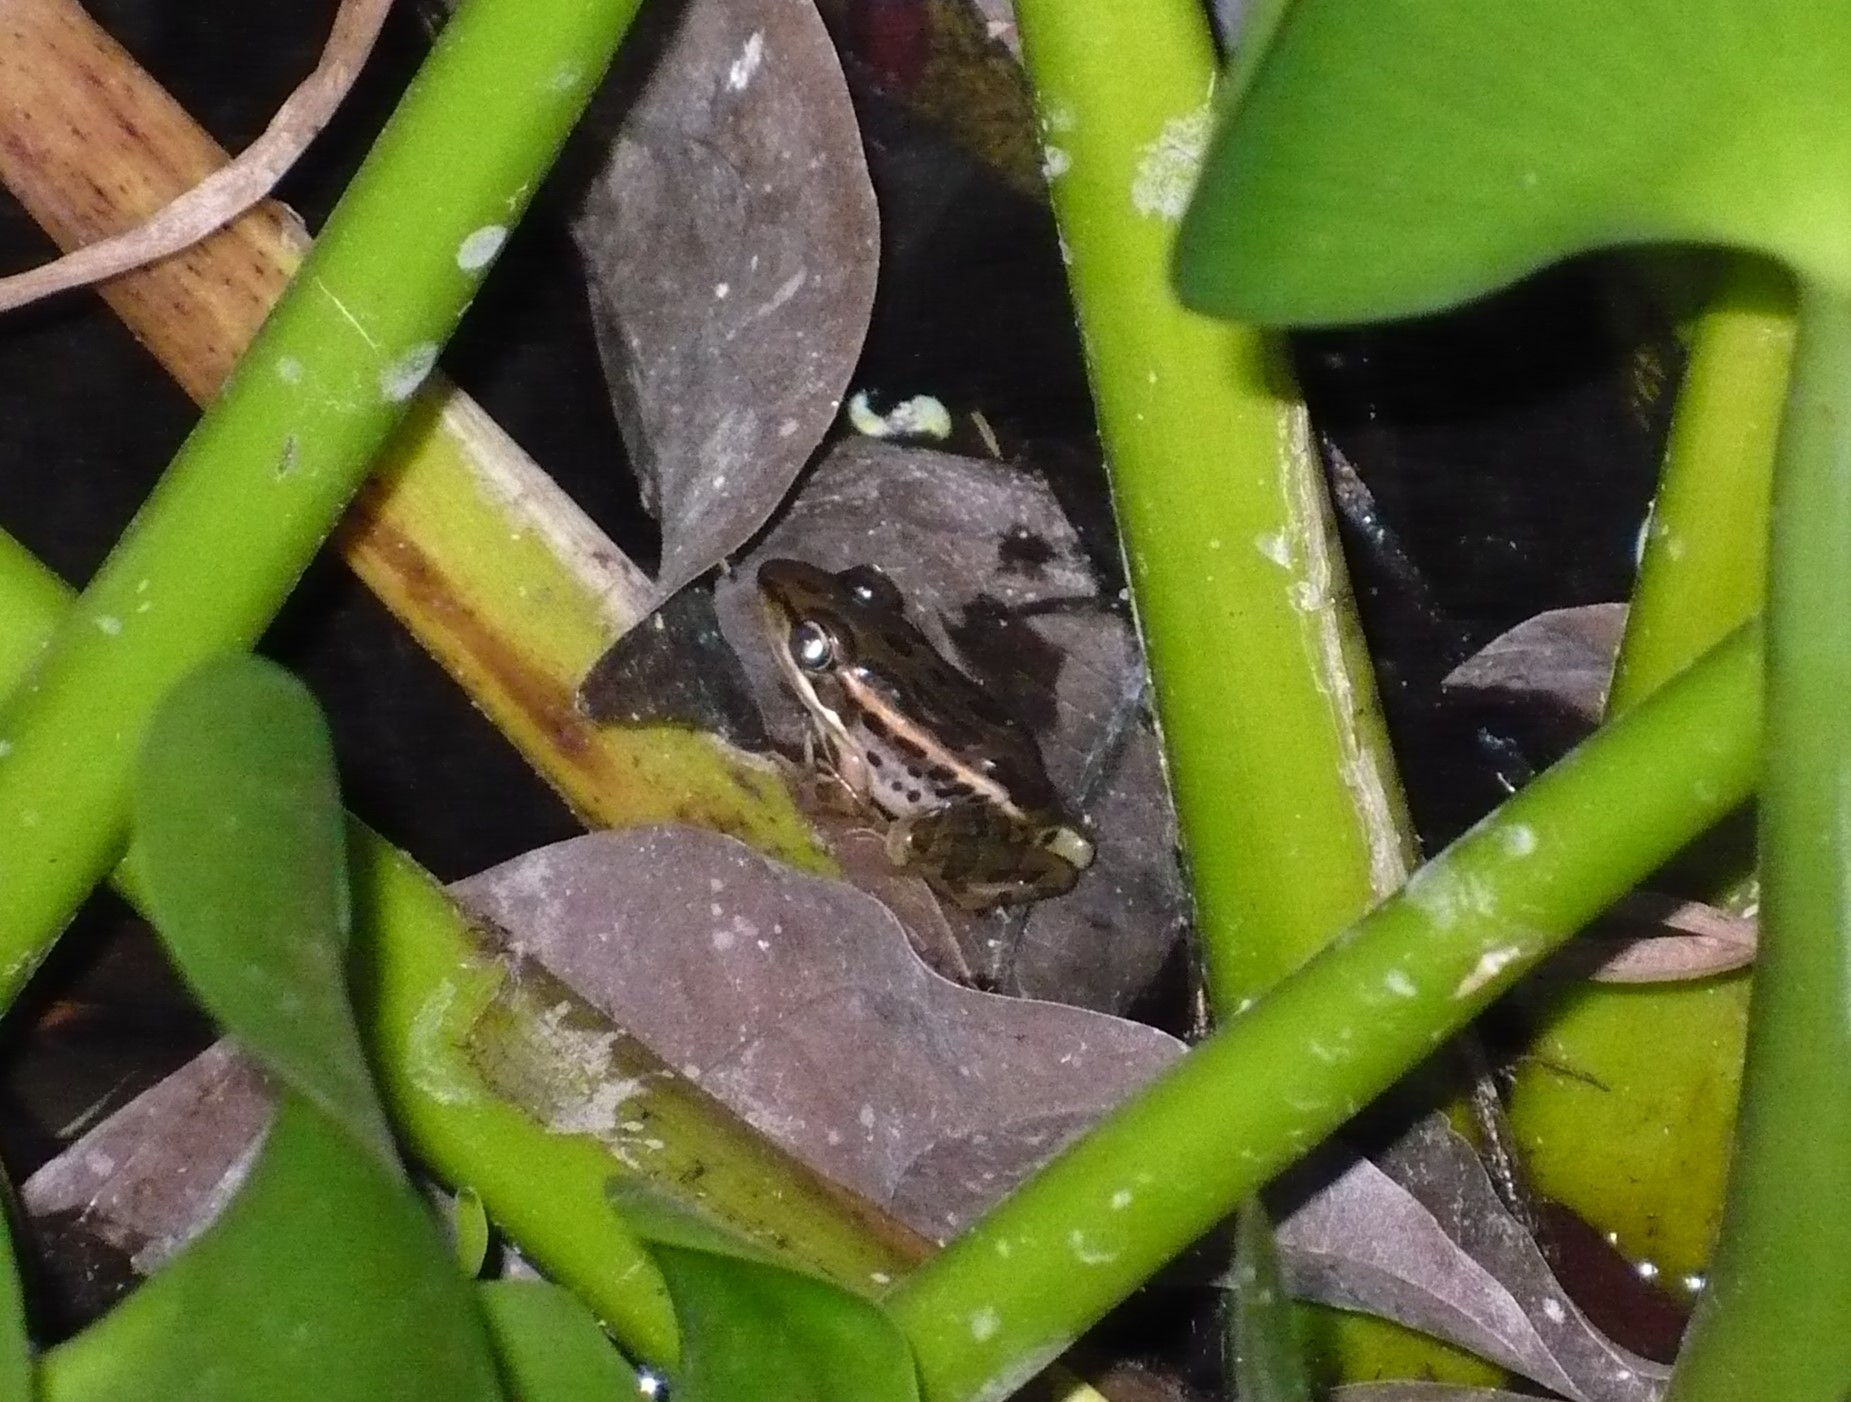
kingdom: Animalia
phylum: Chordata
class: Amphibia
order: Anura
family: Ranidae
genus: Lithobates
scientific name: Lithobates forreri
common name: Forrer's grass frog
